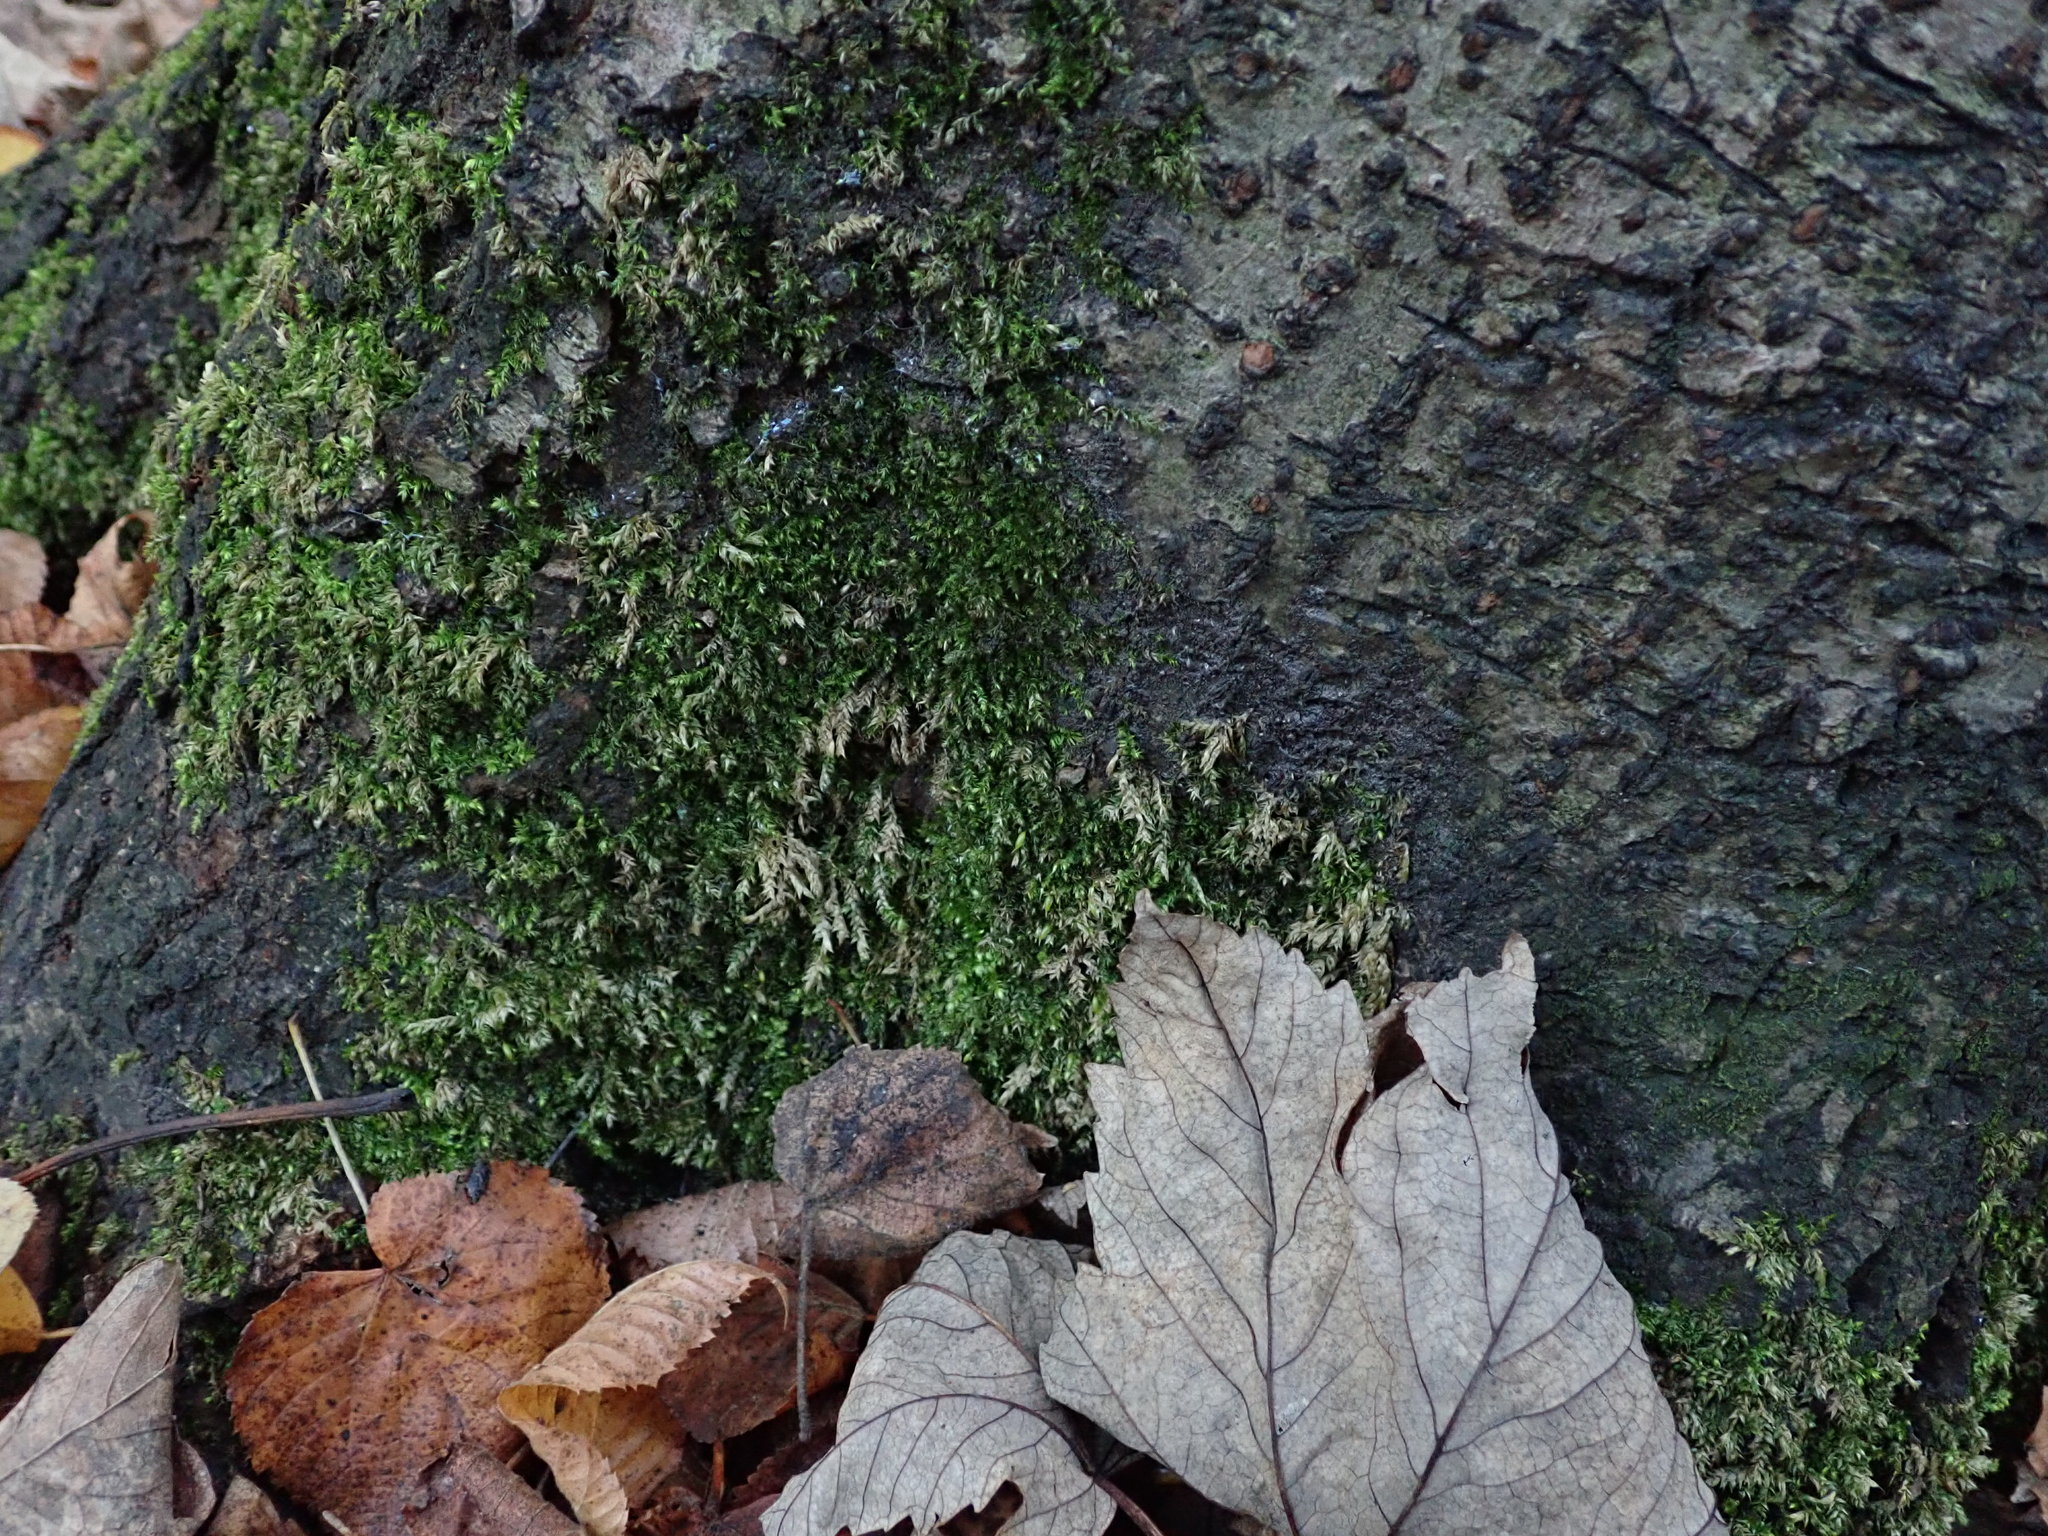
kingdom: Plantae
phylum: Bryophyta
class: Bryopsida
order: Hypnales
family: Brachytheciaceae
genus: Rhynchostegium
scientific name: Rhynchostegium confertum
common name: Clustered feather-moss
